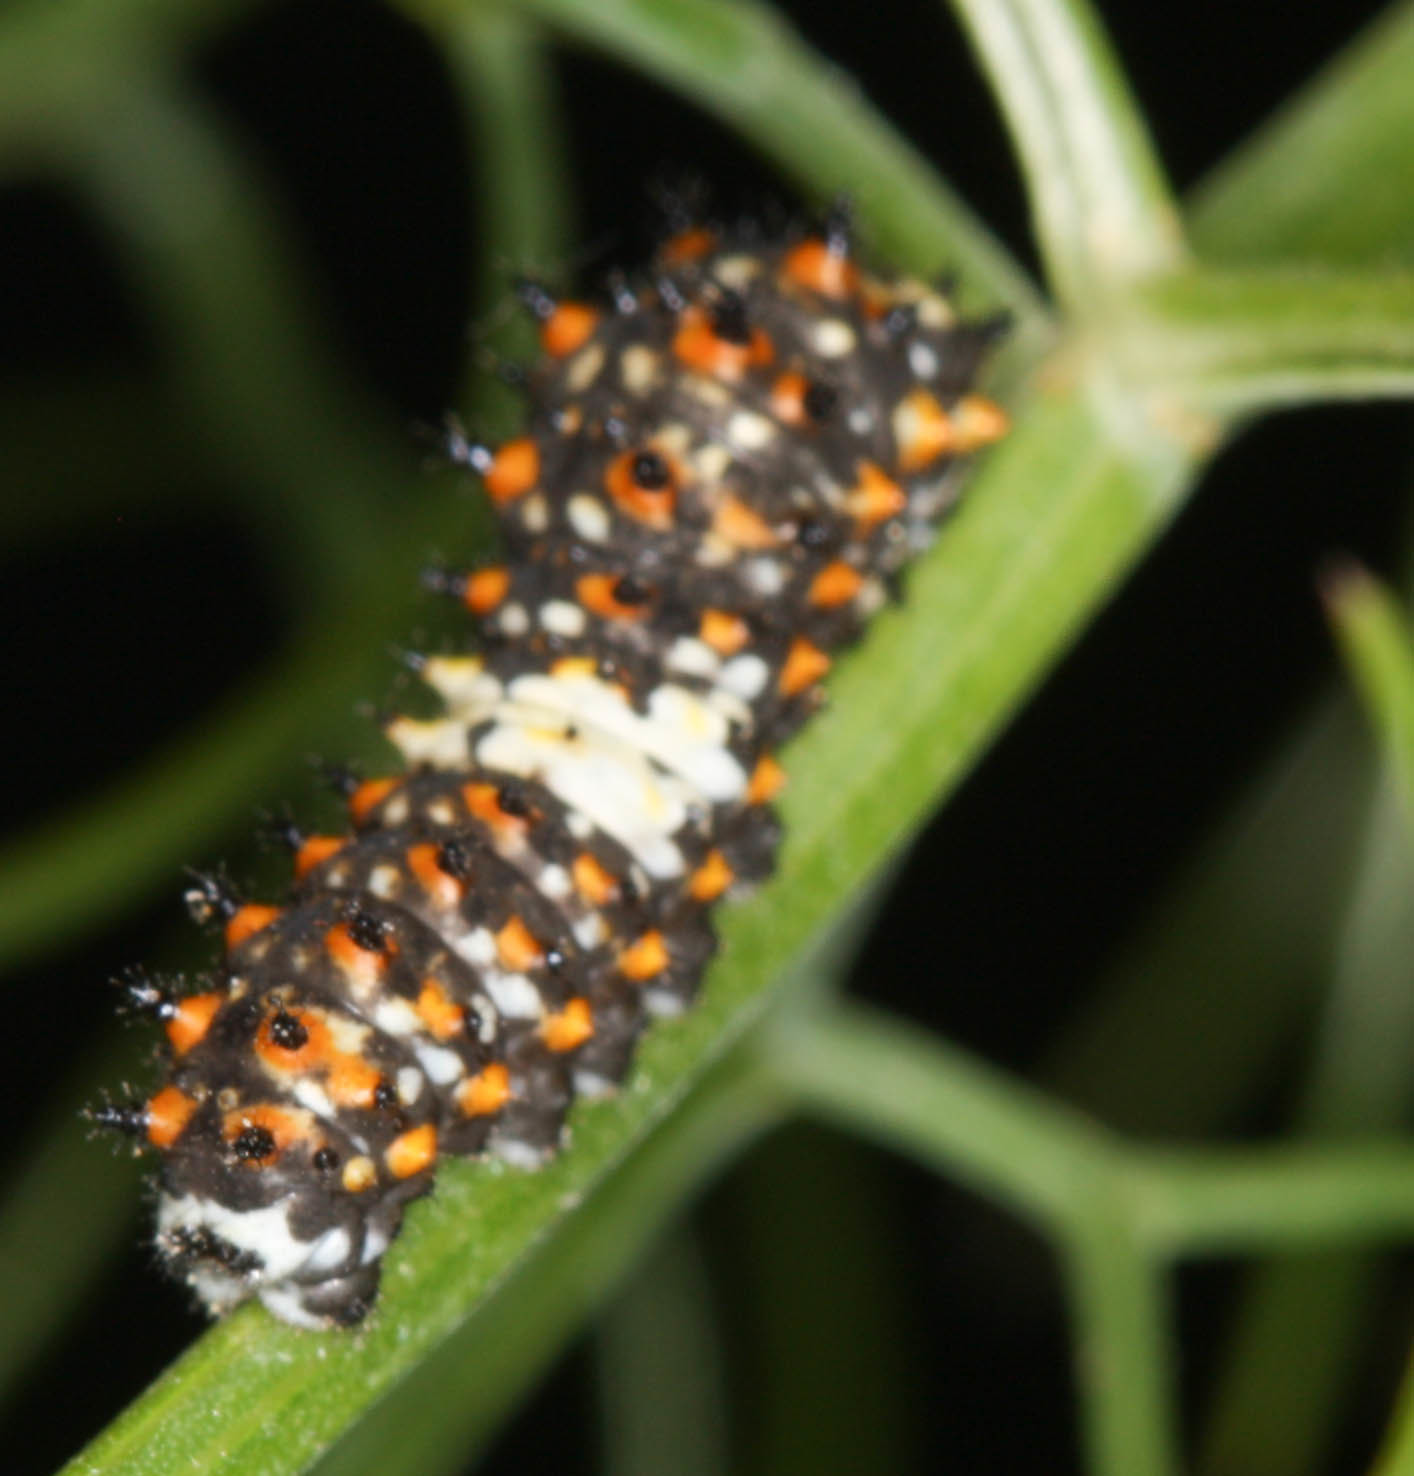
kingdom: Animalia
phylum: Arthropoda
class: Insecta
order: Lepidoptera
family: Papilionidae
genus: Papilio
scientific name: Papilio zelicaon
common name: Anise swallowtail
